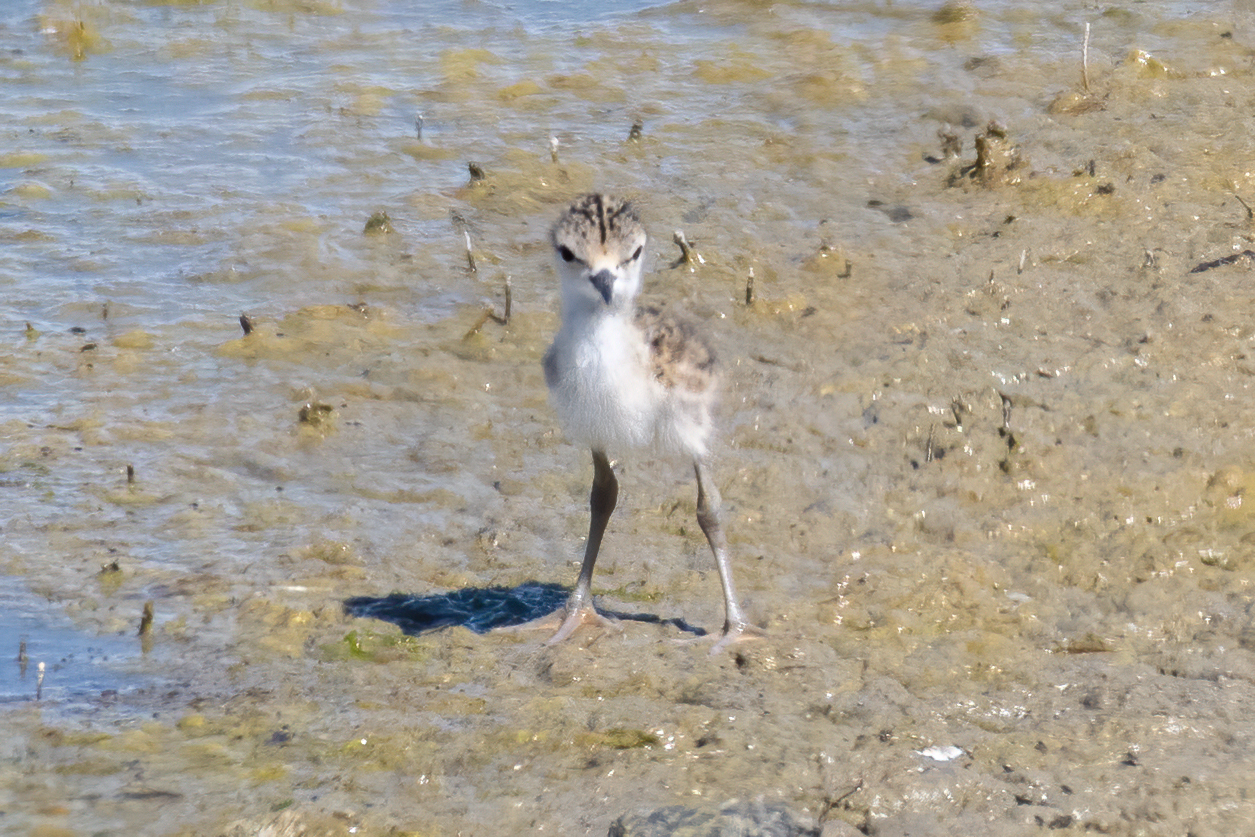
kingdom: Animalia
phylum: Chordata
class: Aves
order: Charadriiformes
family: Recurvirostridae
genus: Himantopus
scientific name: Himantopus mexicanus
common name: Black-necked stilt
